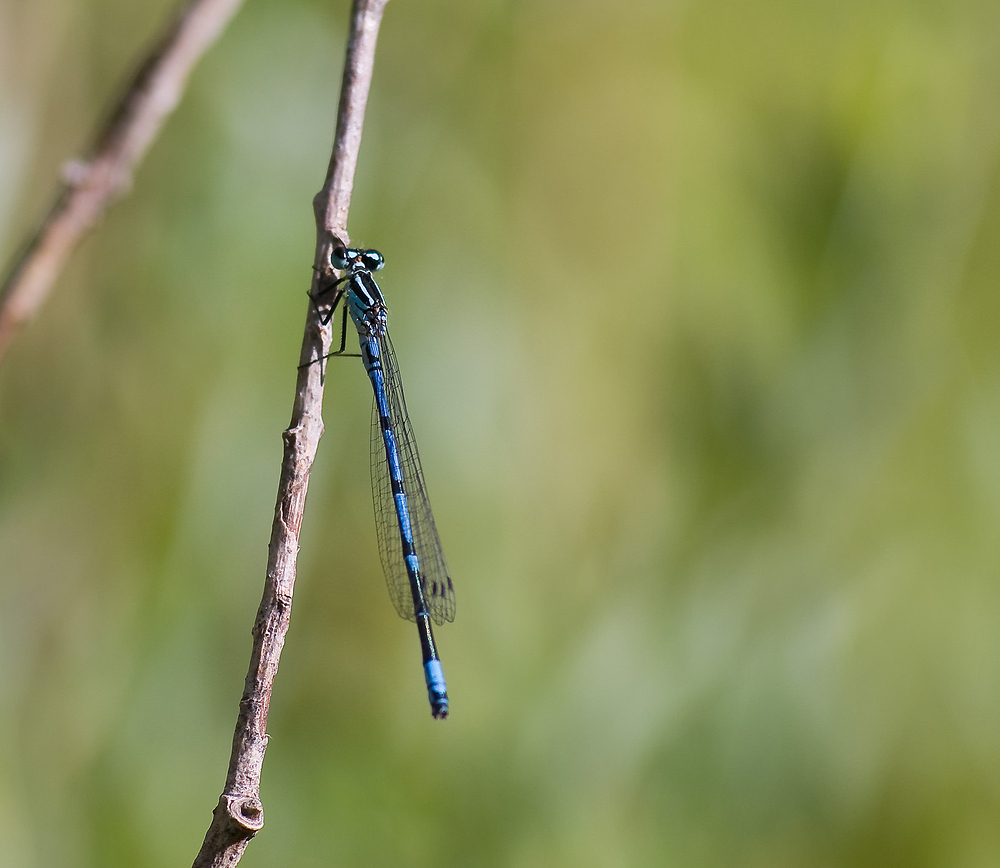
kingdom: Animalia
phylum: Arthropoda
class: Insecta
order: Odonata
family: Coenagrionidae
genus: Coenagrion
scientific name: Coenagrion puella
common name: Azure damselfly
